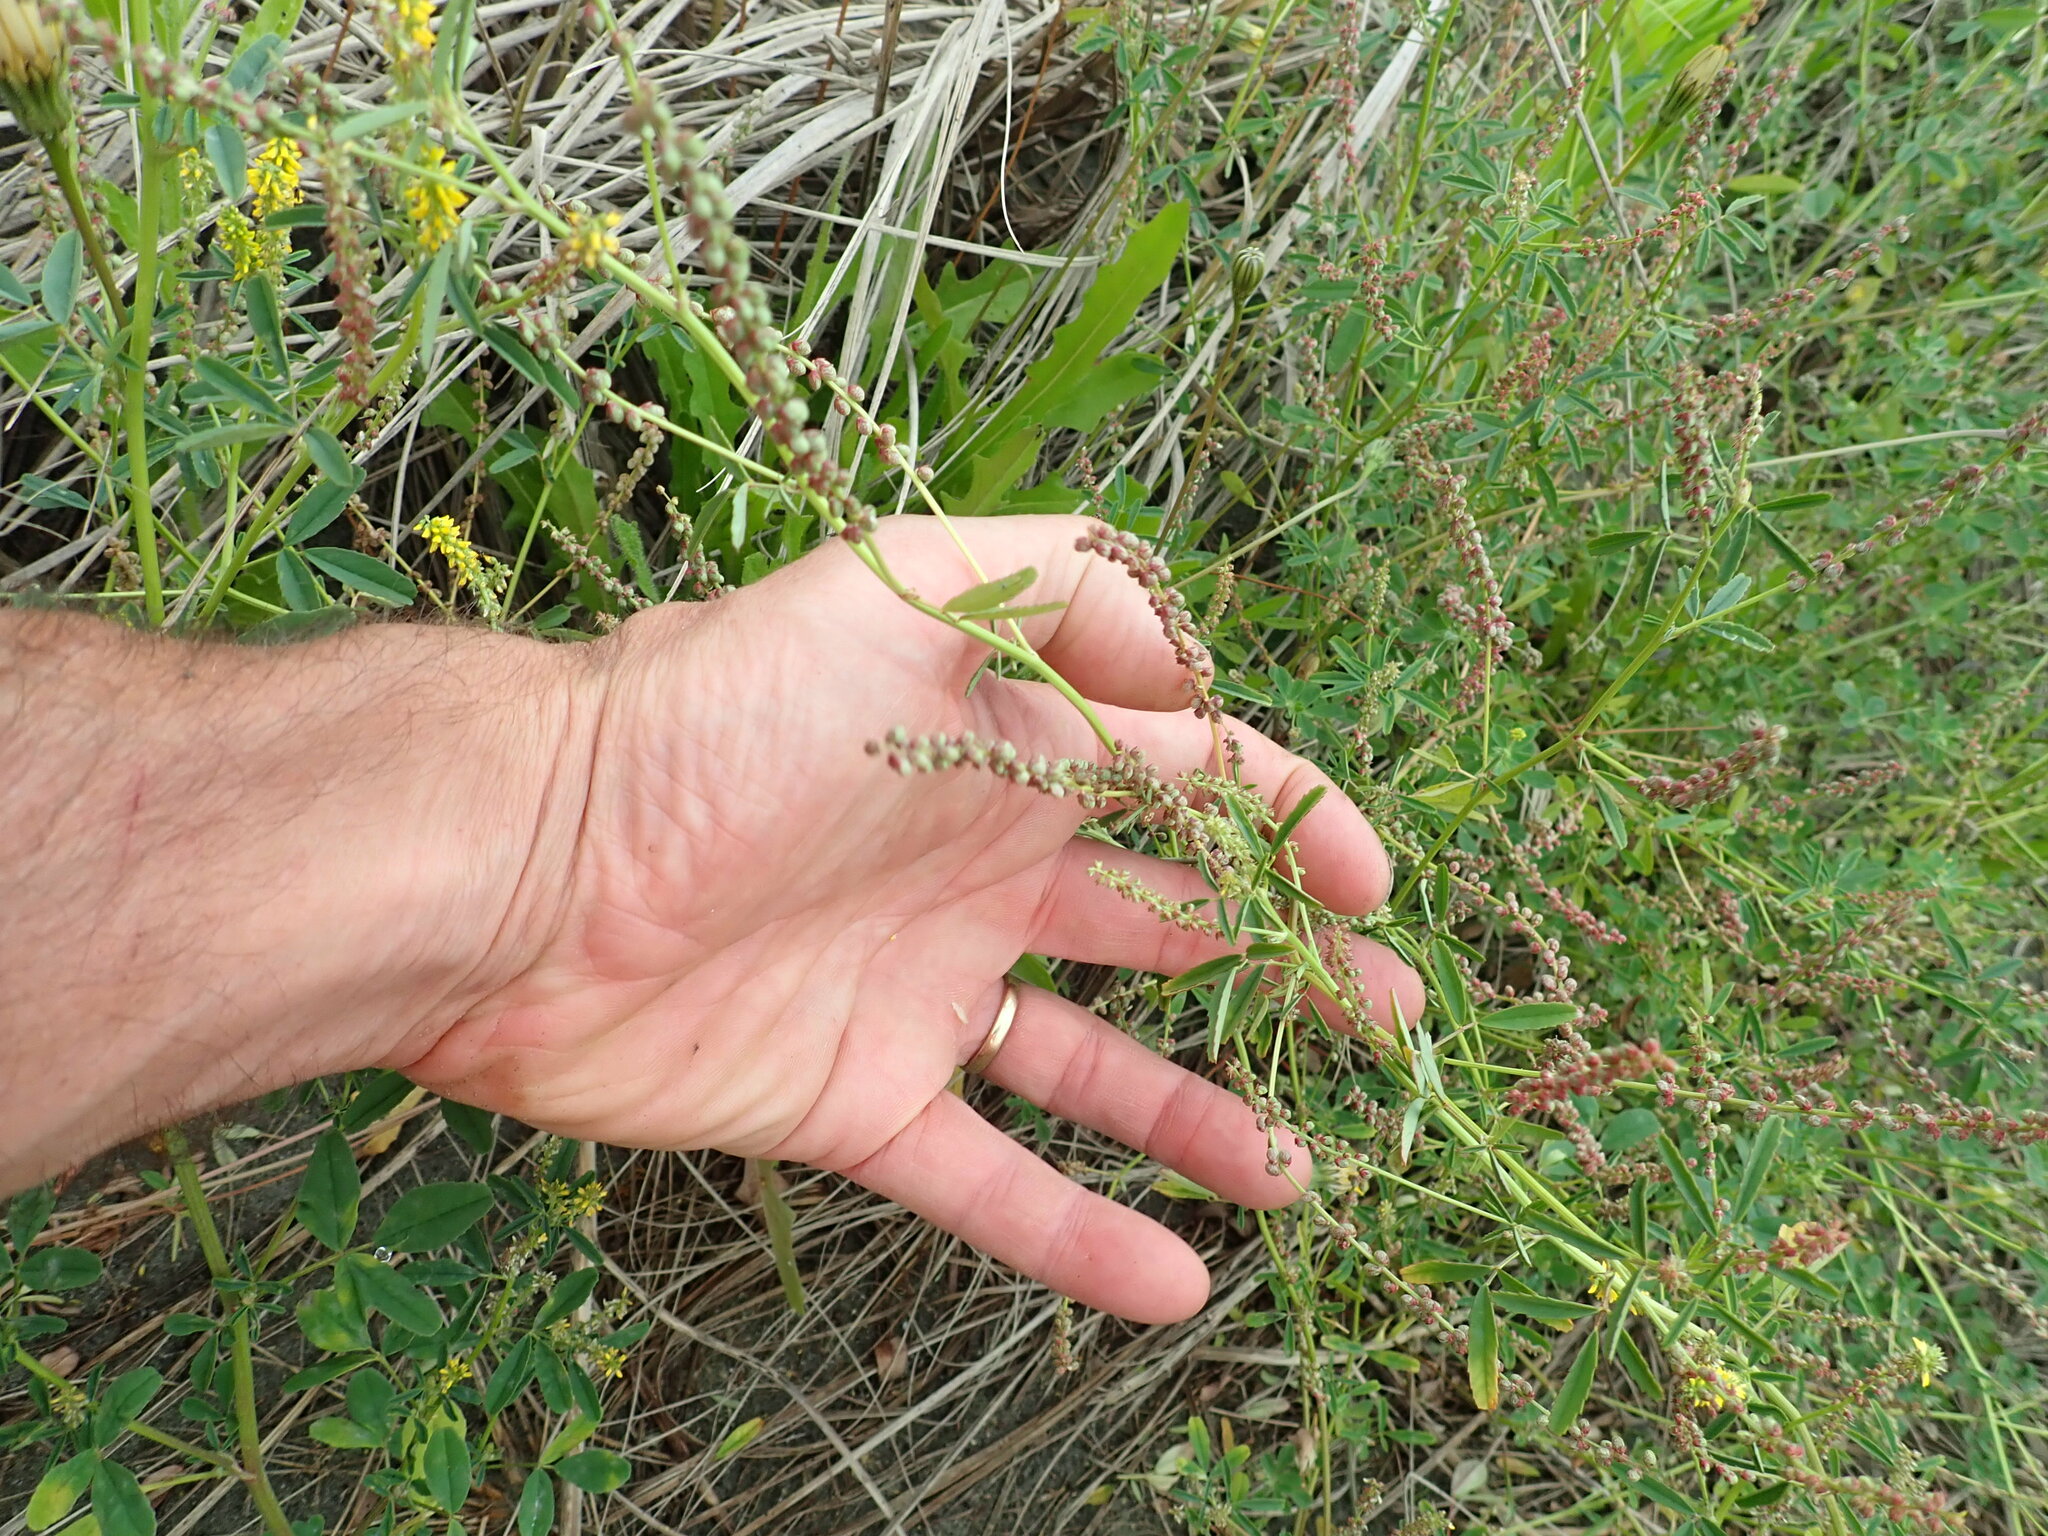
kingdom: Plantae
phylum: Tracheophyta
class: Magnoliopsida
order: Fabales
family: Fabaceae
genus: Melilotus
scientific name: Melilotus indicus
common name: Small melilot
